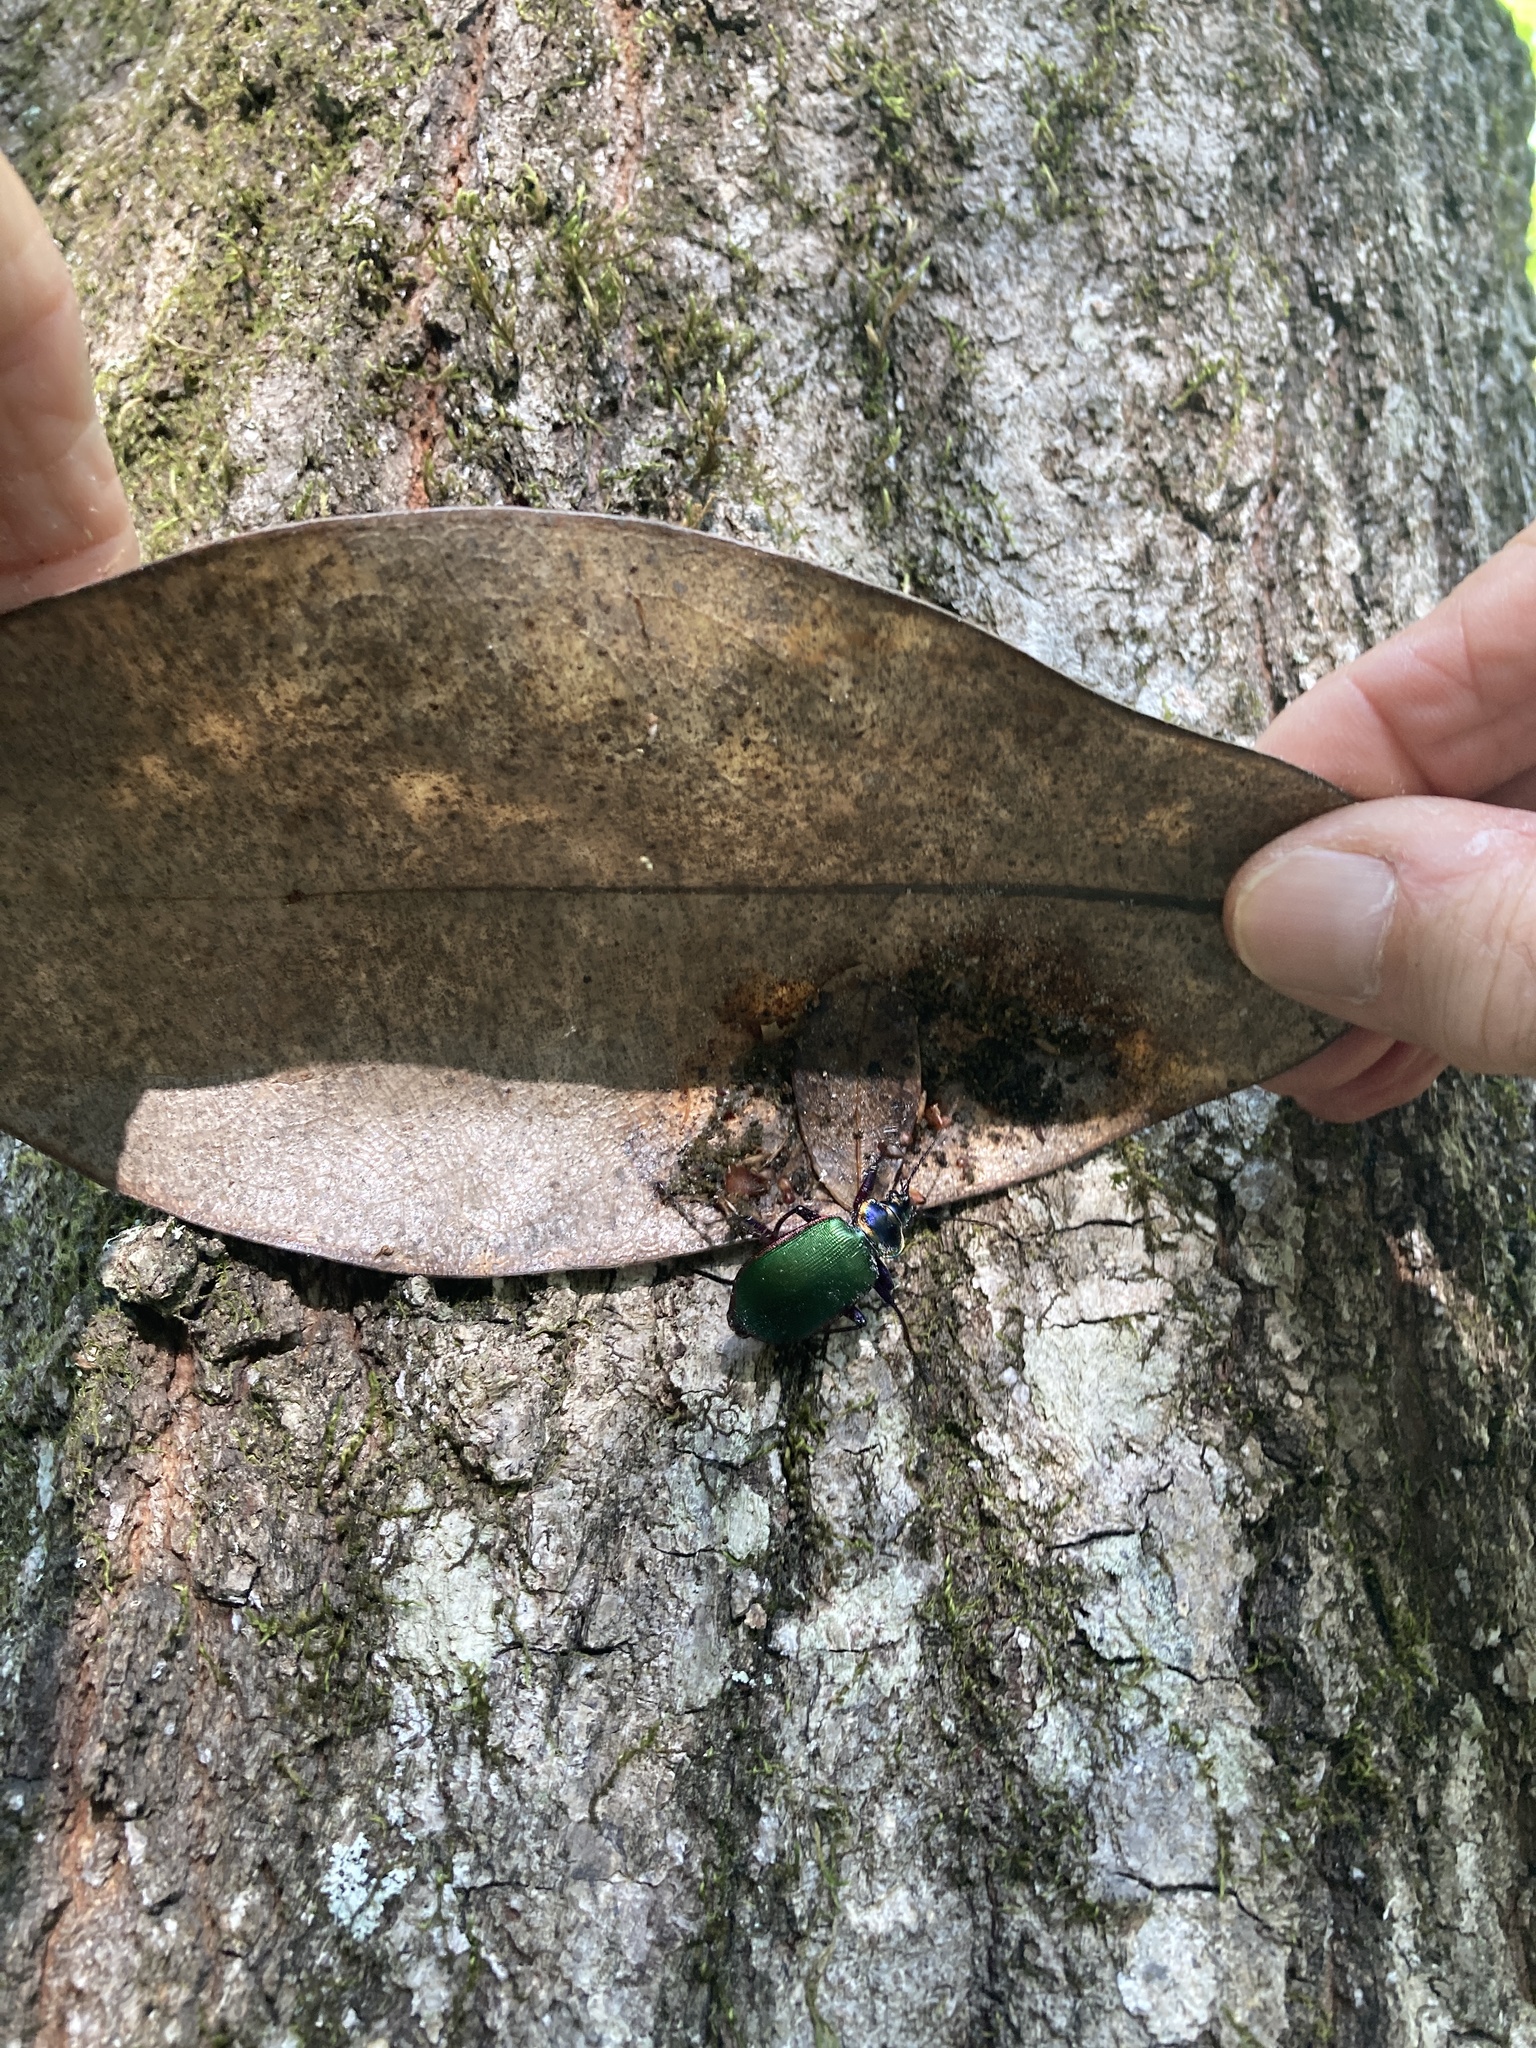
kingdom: Animalia
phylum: Arthropoda
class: Insecta
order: Coleoptera
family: Carabidae
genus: Calosoma
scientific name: Calosoma scrutator
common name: Fiery searcher beetle
